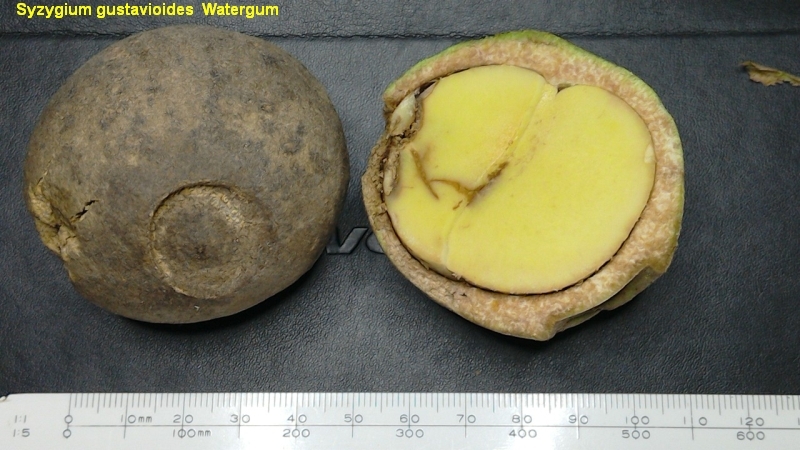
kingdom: Plantae
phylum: Tracheophyta
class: Magnoliopsida
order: Myrtales
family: Myrtaceae
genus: Syzygium
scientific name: Syzygium gustavioides
